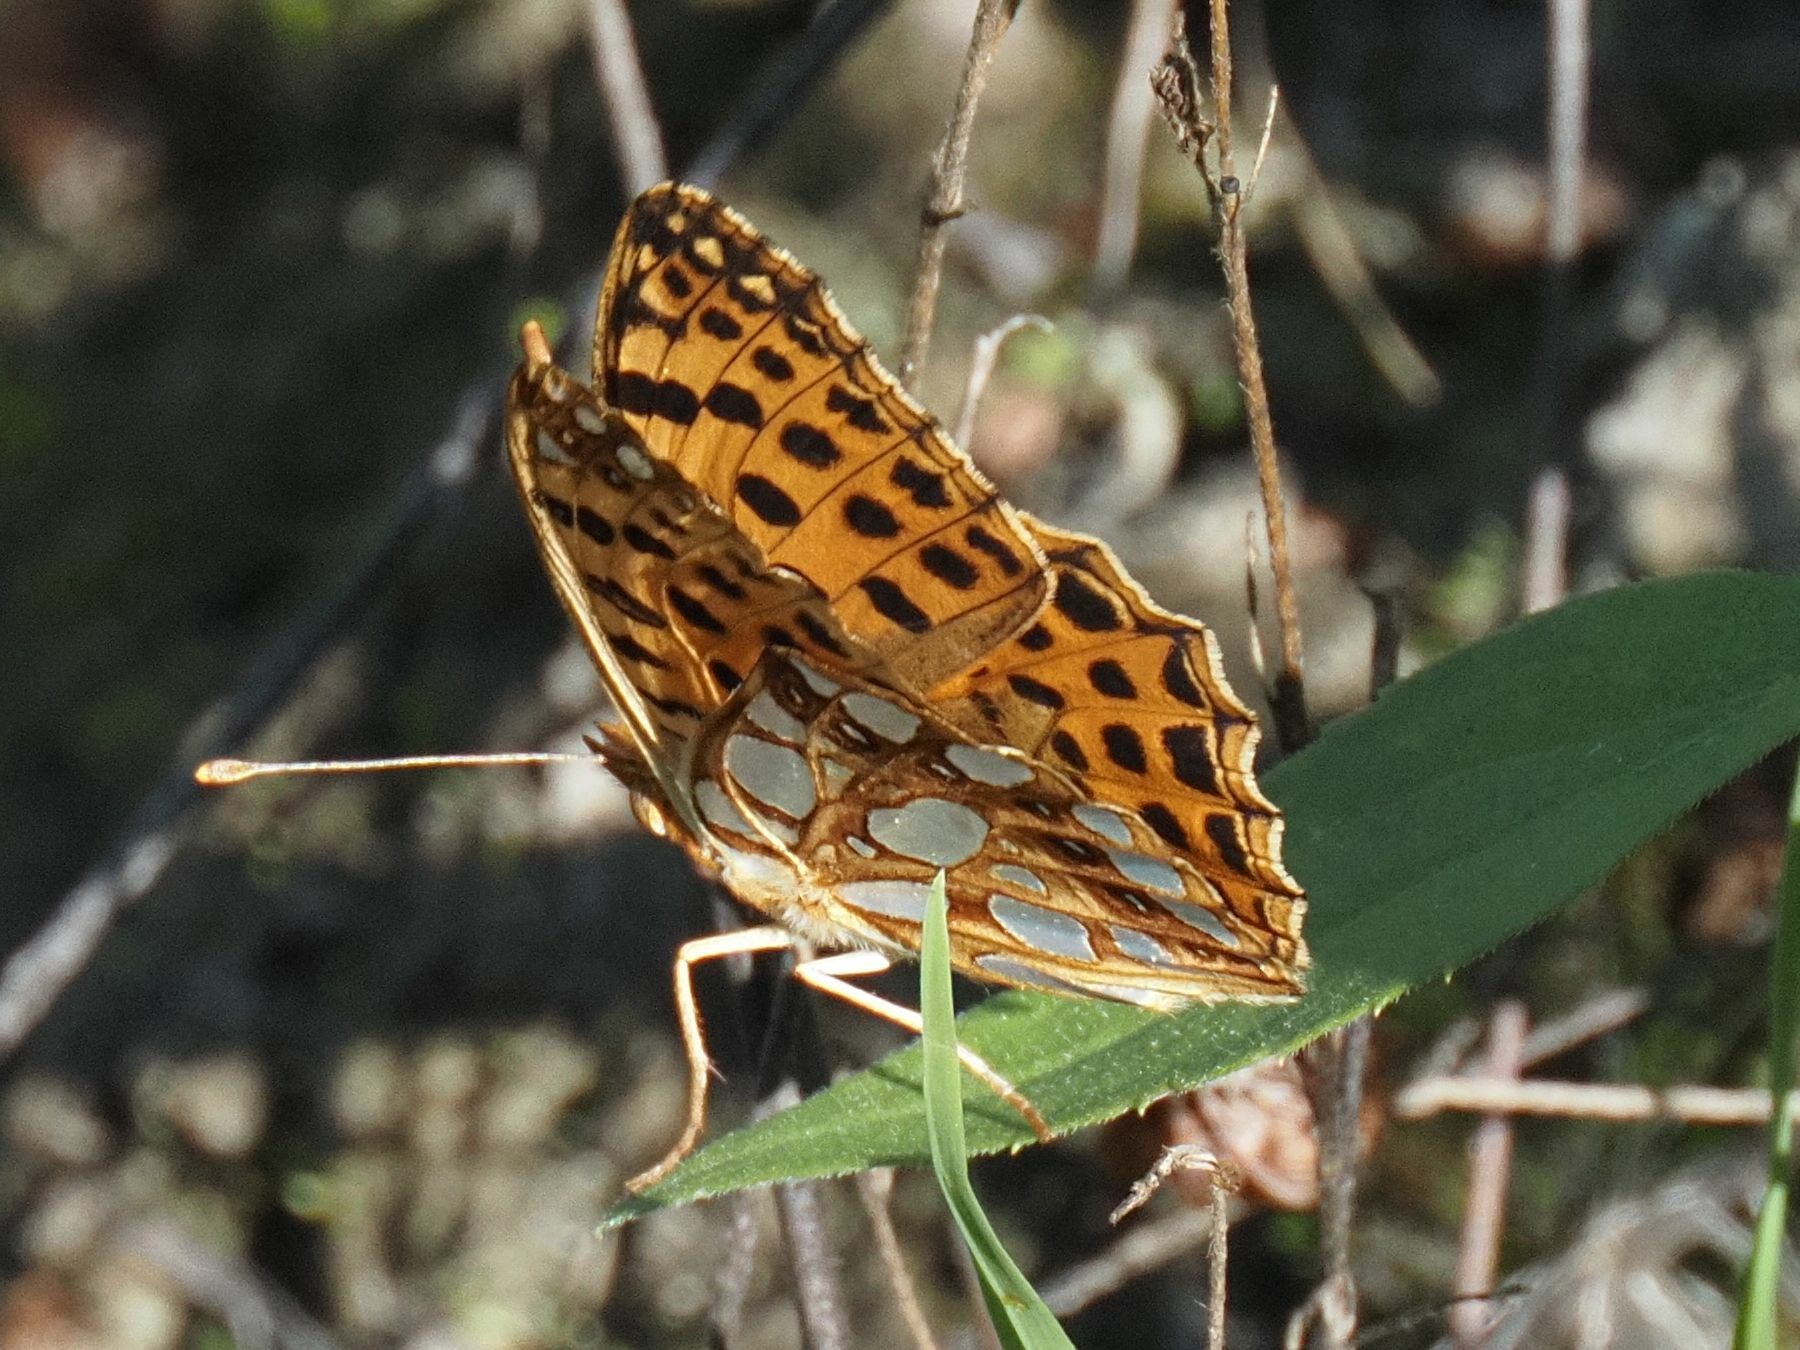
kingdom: Animalia
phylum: Arthropoda
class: Insecta
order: Lepidoptera
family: Nymphalidae
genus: Issoria
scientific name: Issoria lathonia
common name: Queen of spain fritillary
